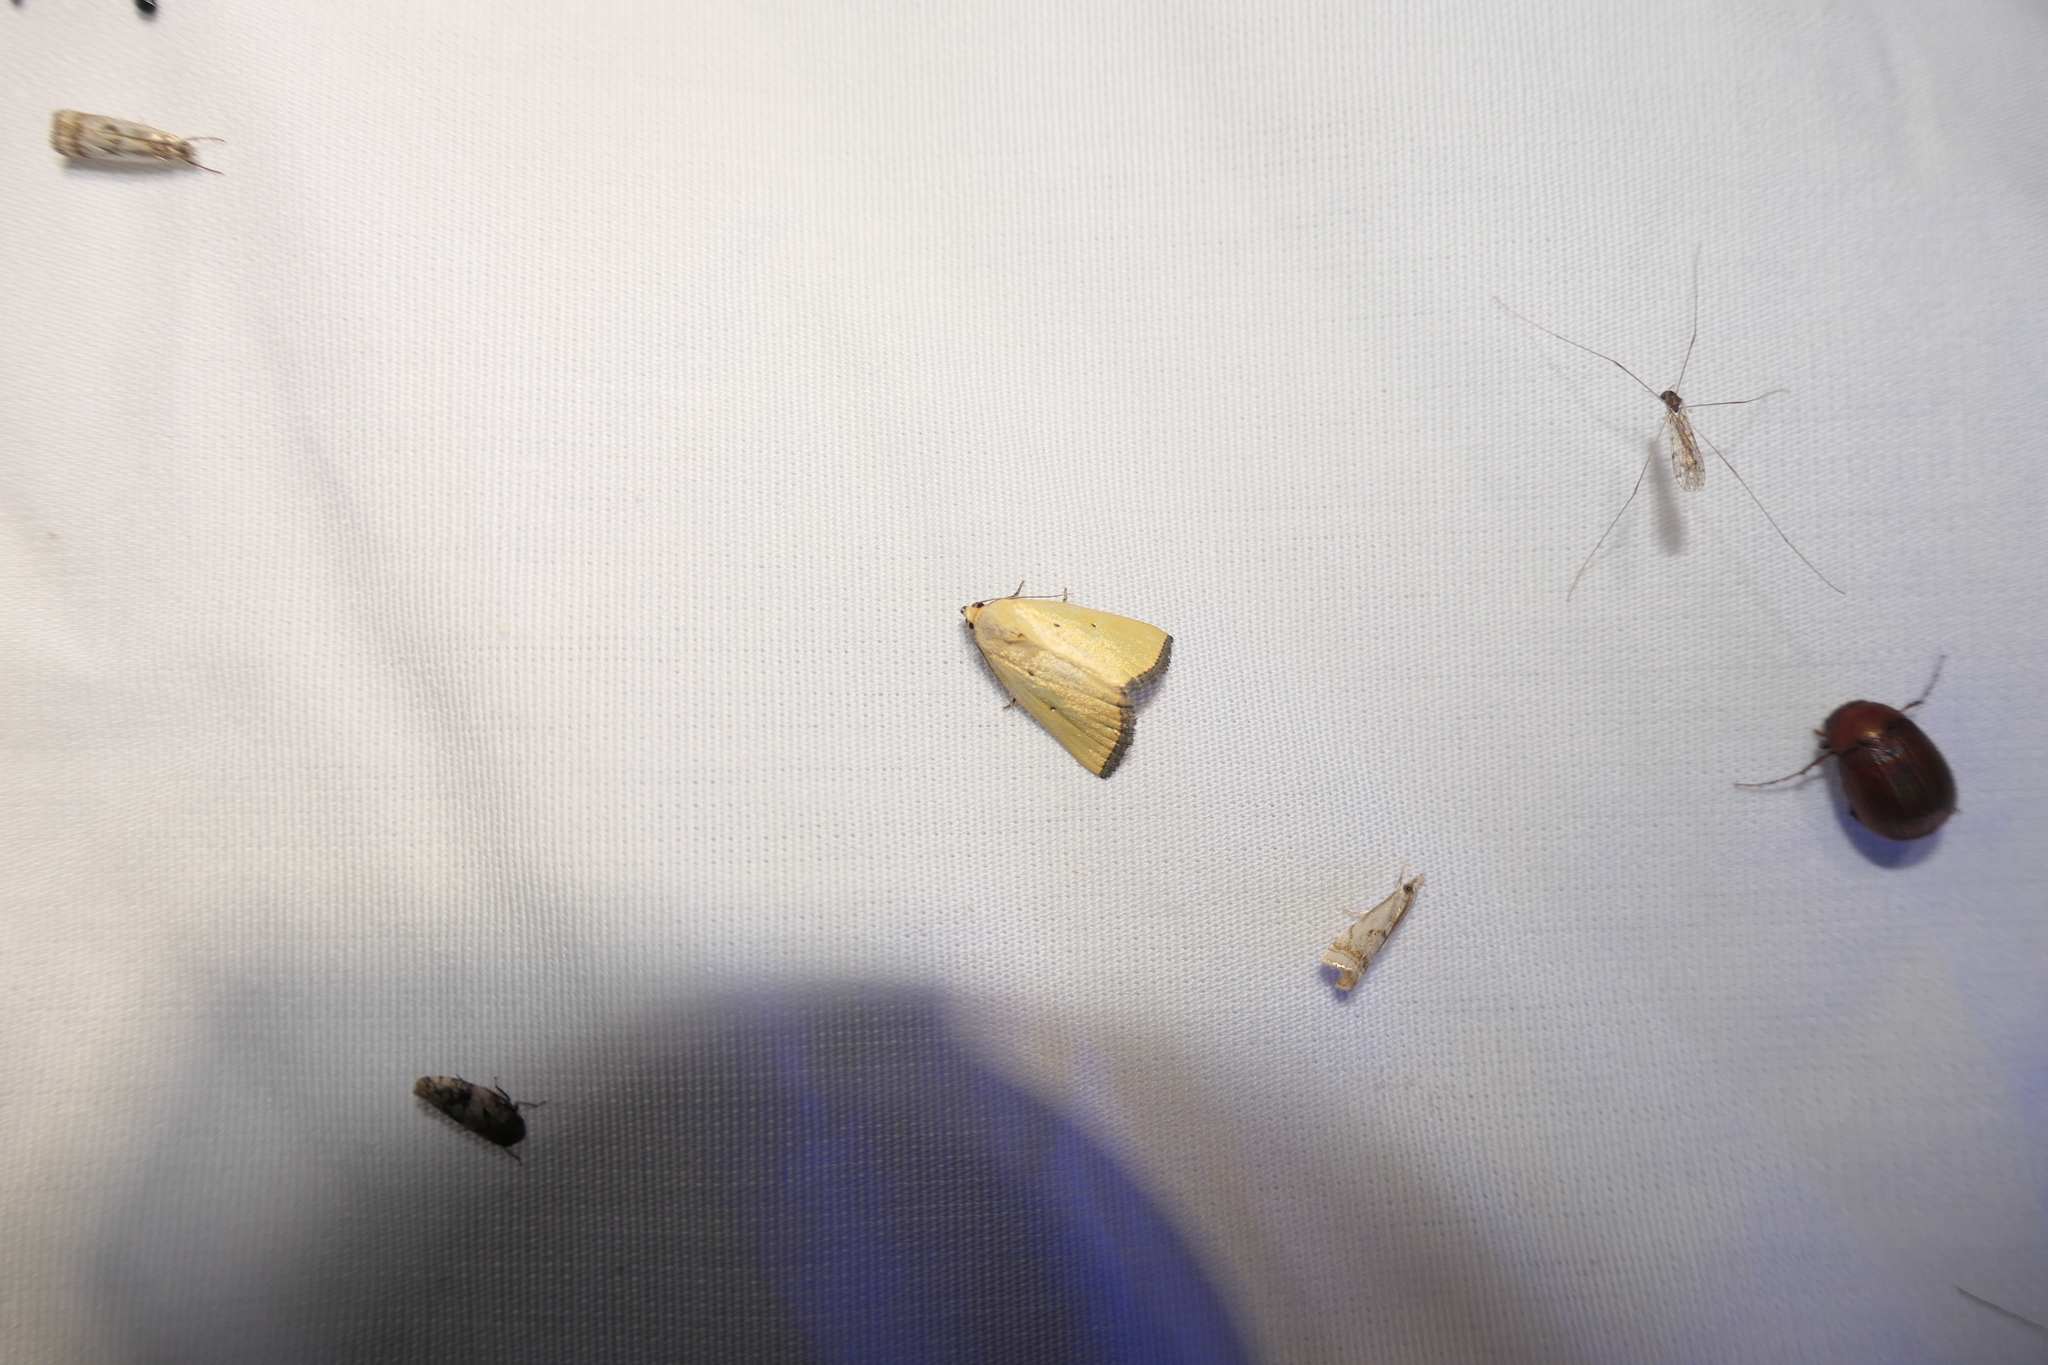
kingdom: Animalia
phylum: Arthropoda
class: Insecta
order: Lepidoptera
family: Noctuidae
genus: Marimatha
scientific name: Marimatha nigrofimbria
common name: Black-bordered lemon moth
